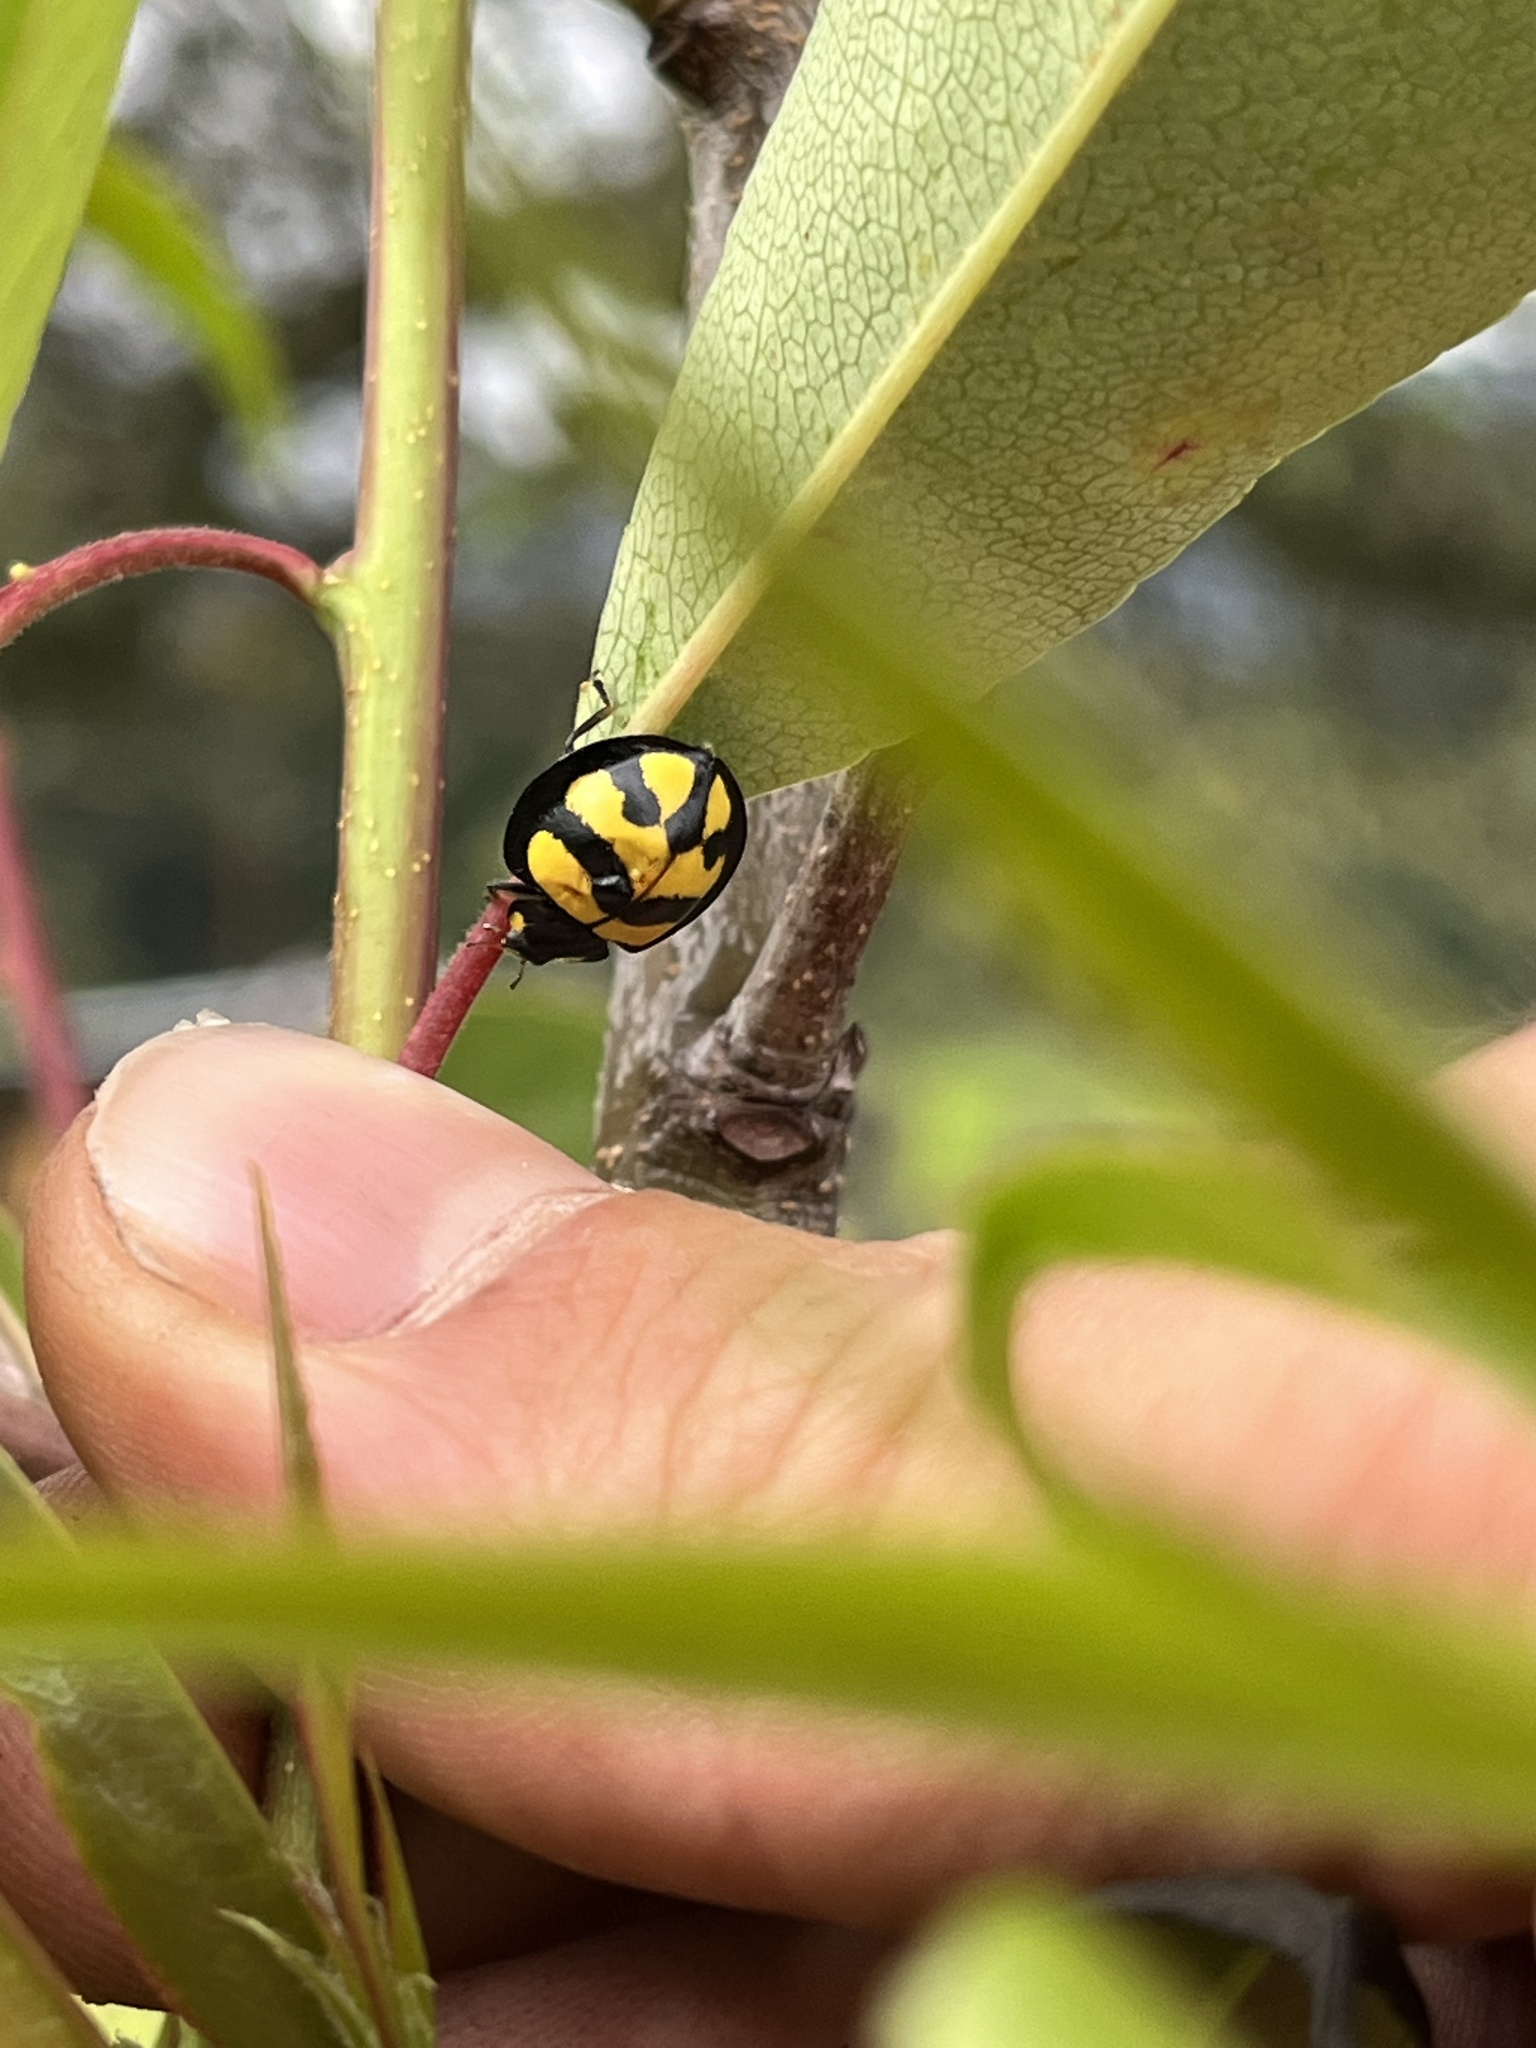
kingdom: Animalia
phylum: Arthropoda
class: Insecta
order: Coleoptera
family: Coccinellidae
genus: Neda
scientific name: Neda norrisi
